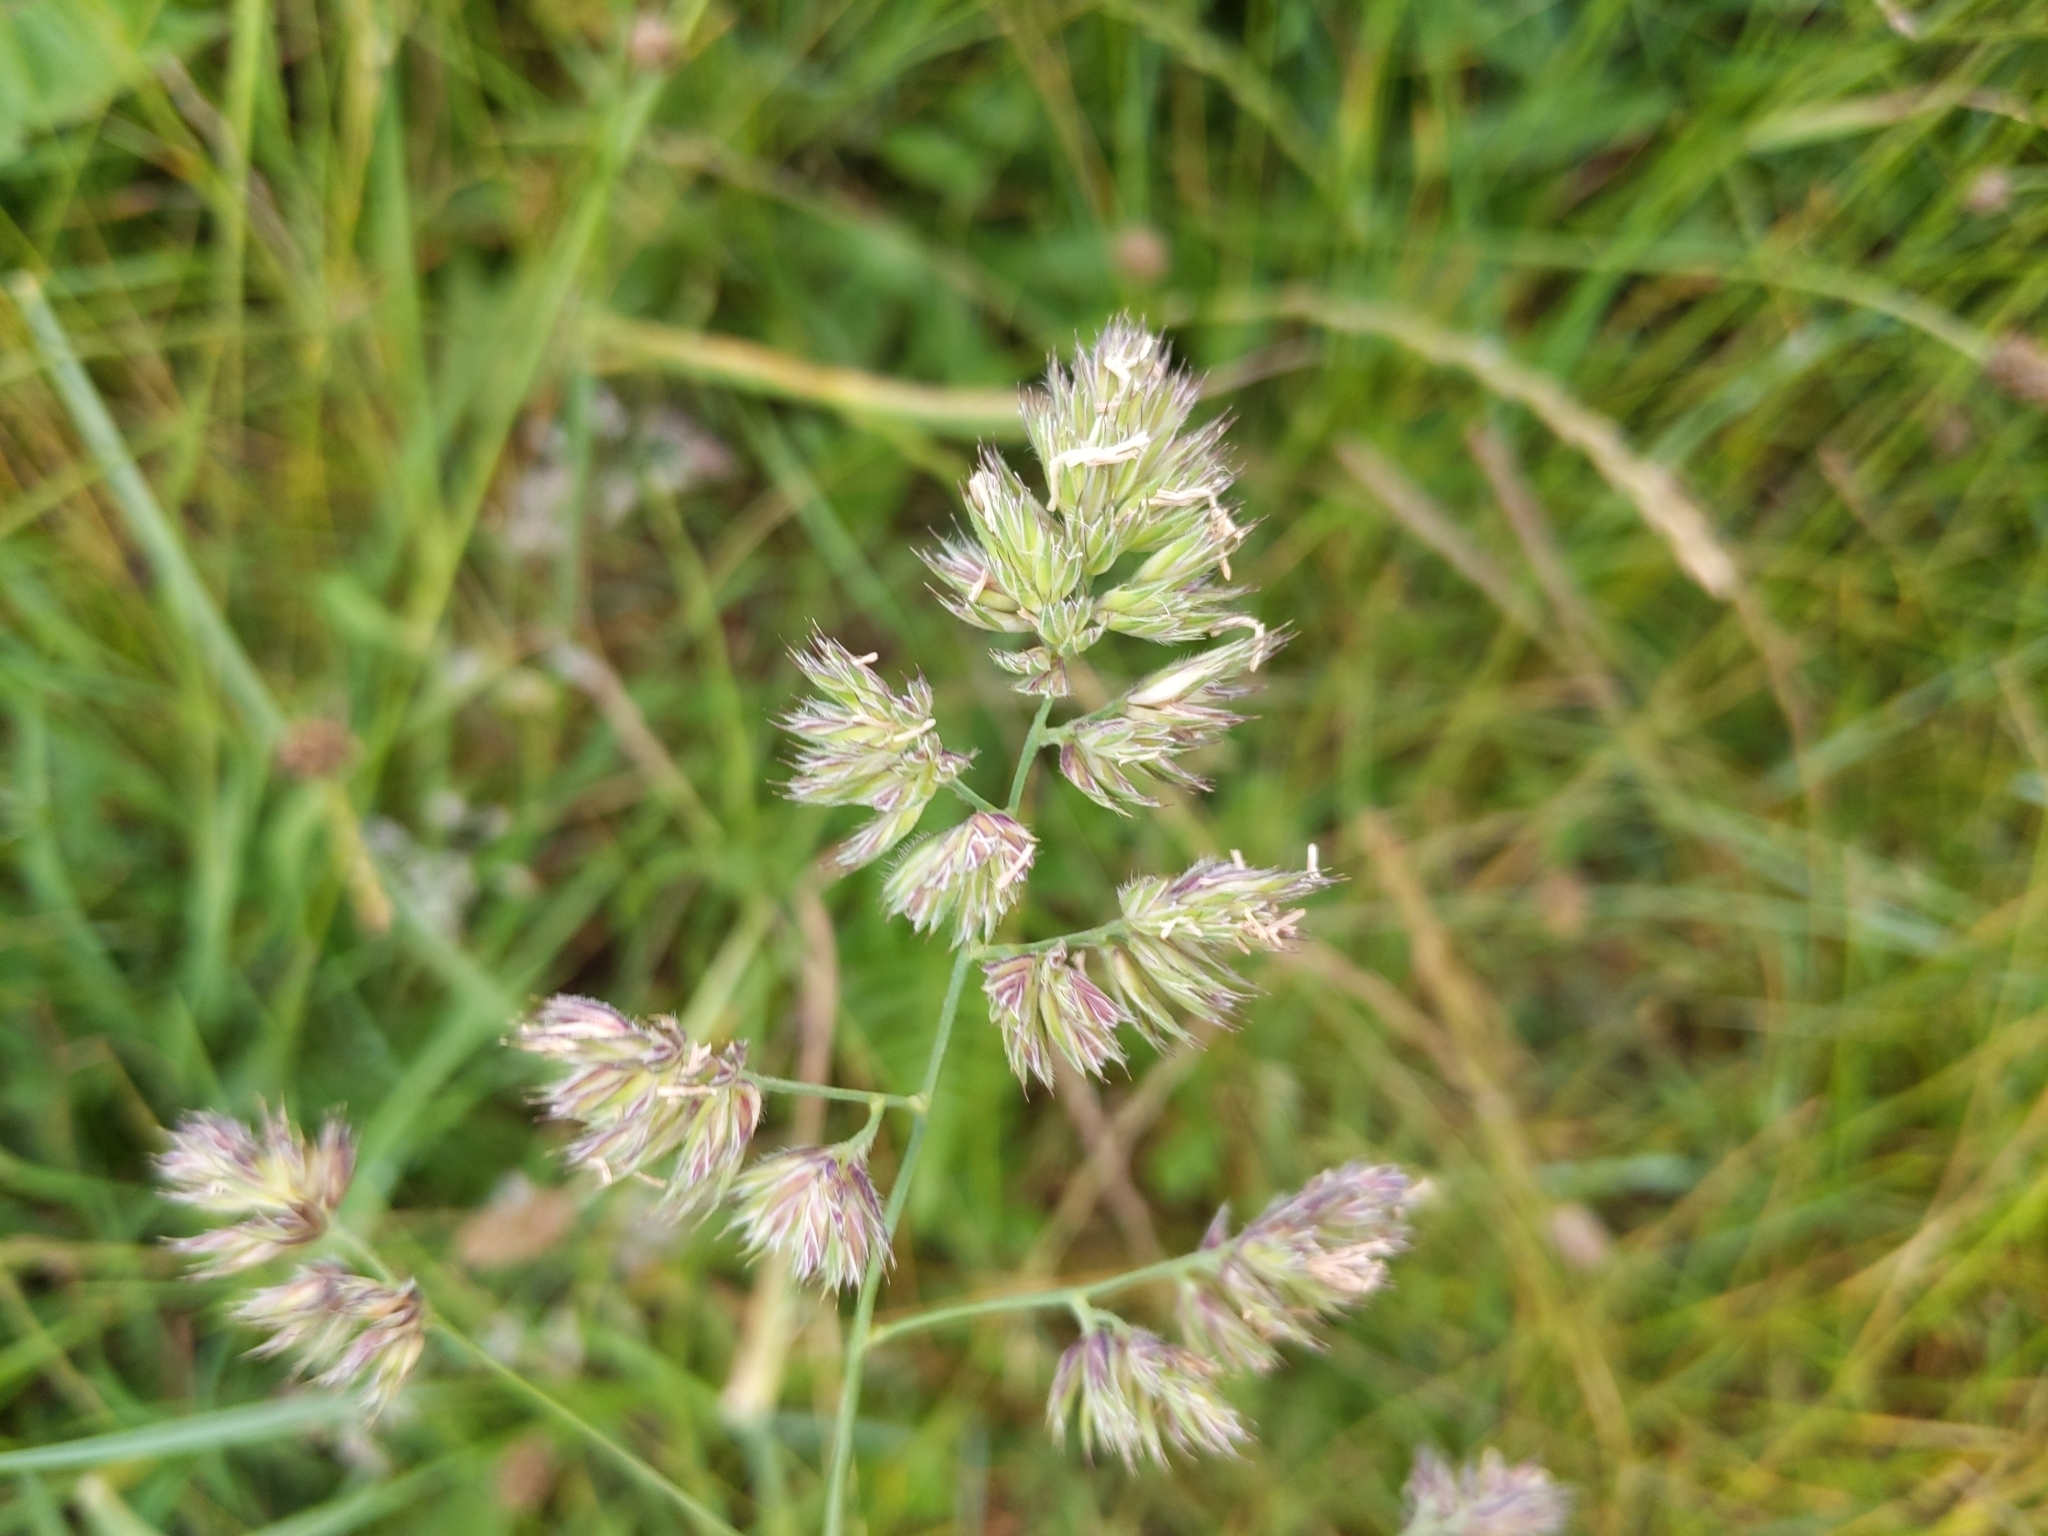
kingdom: Plantae
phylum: Tracheophyta
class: Liliopsida
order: Poales
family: Poaceae
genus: Dactylis
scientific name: Dactylis glomerata
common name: Orchardgrass
